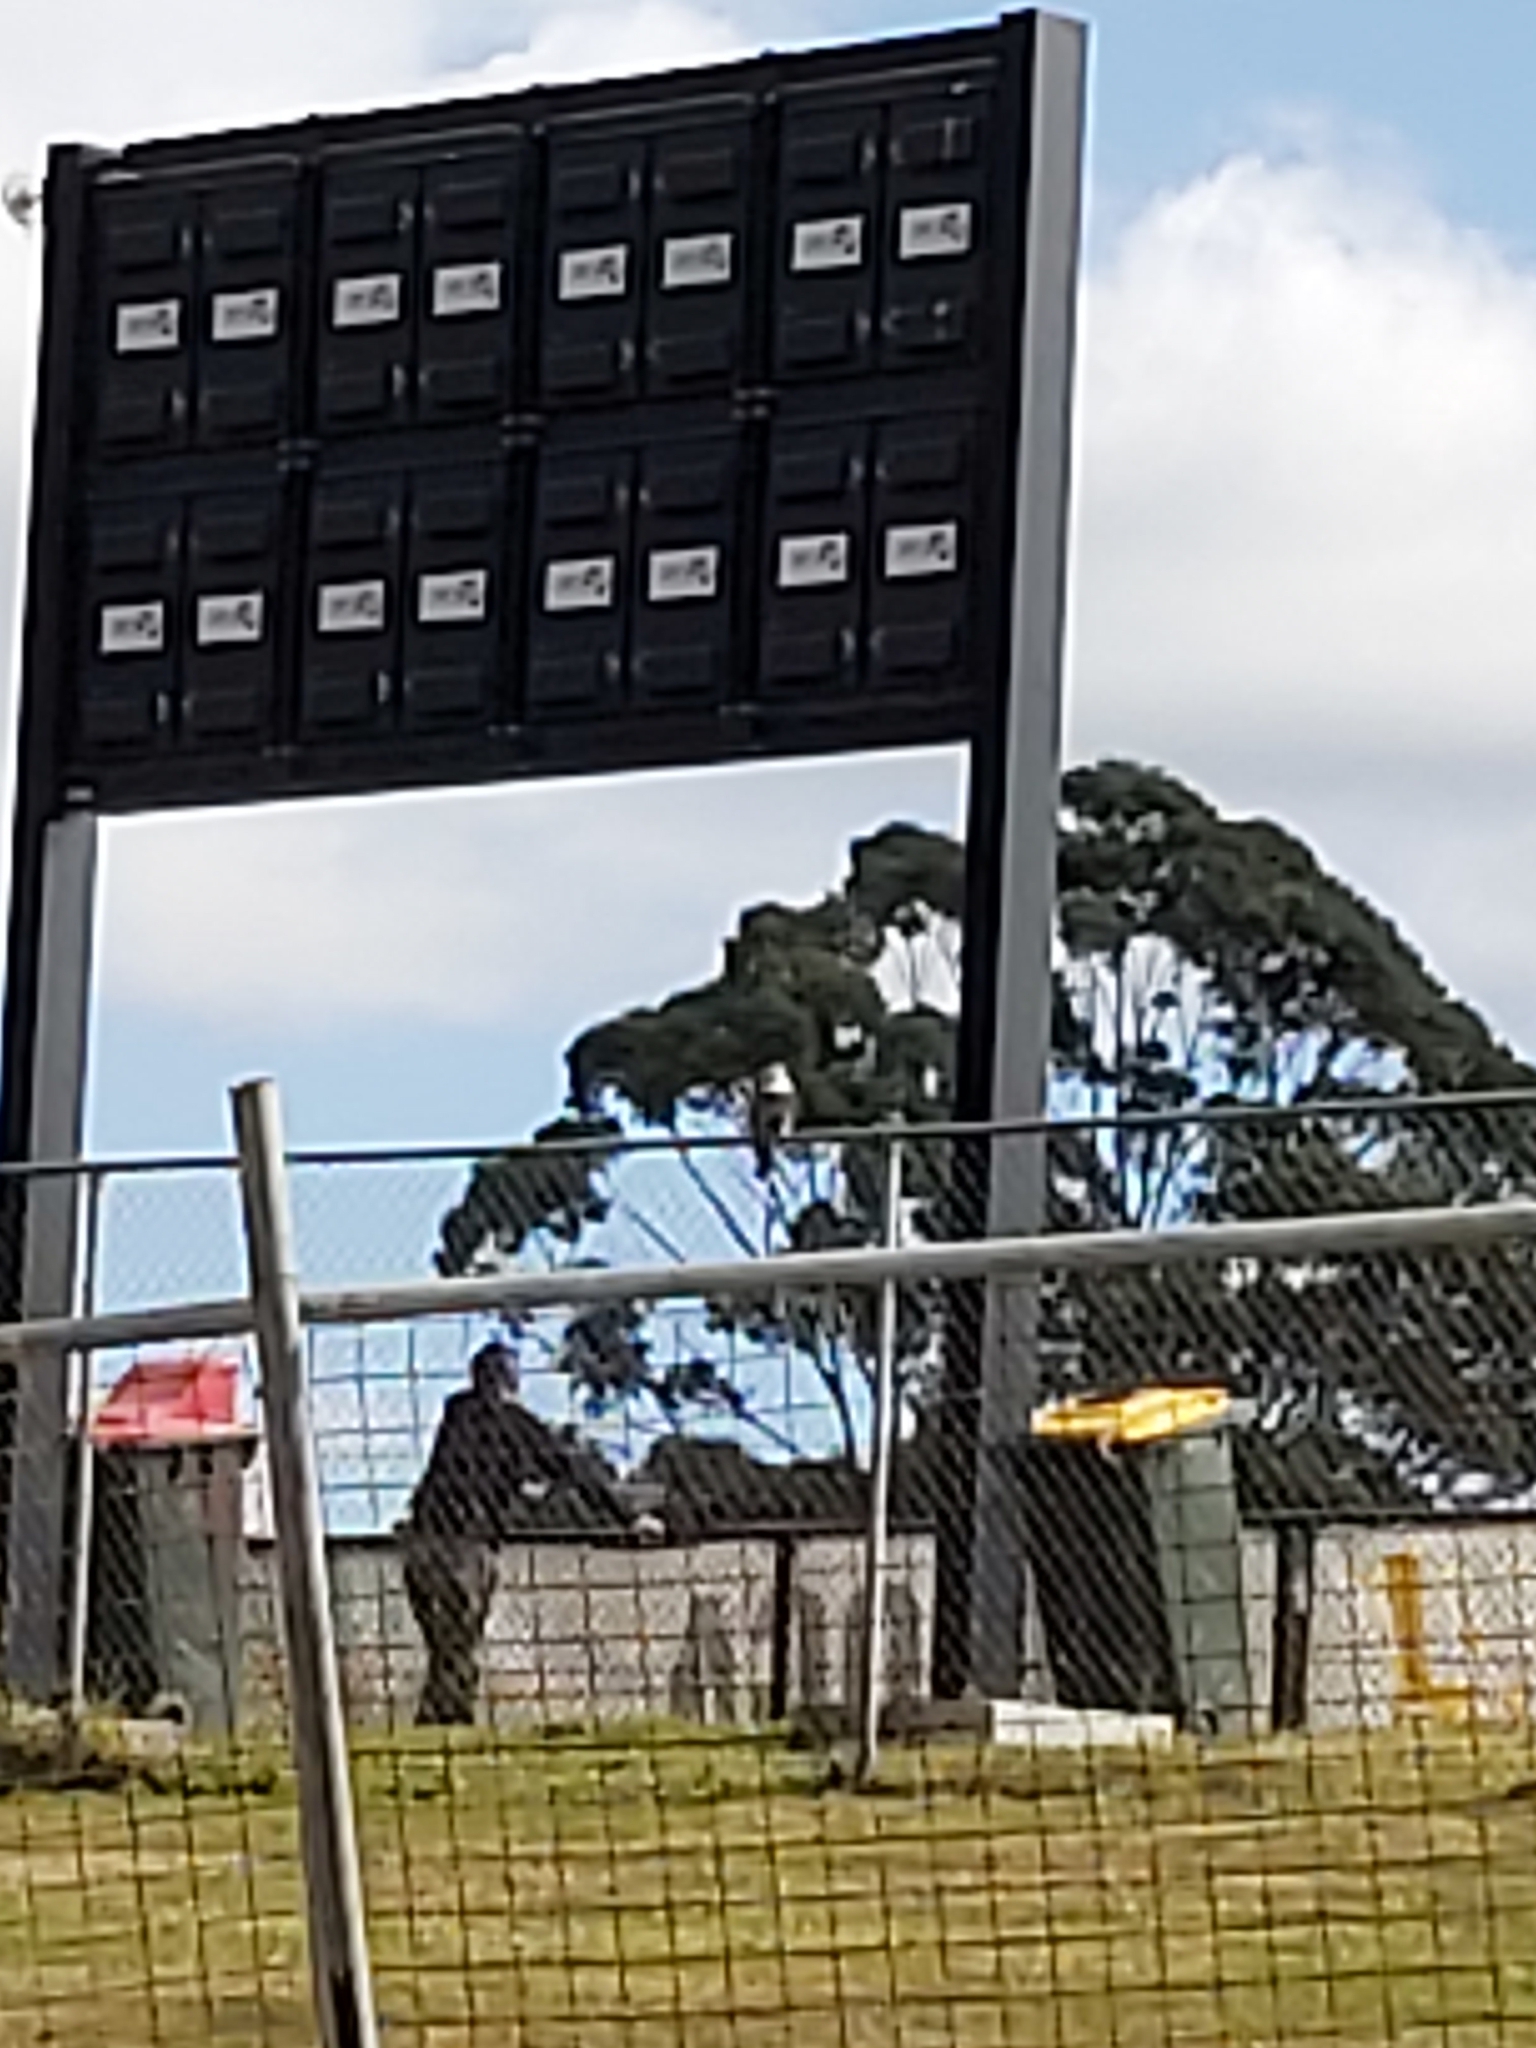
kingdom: Animalia
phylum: Chordata
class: Aves
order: Coraciiformes
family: Alcedinidae
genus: Dacelo
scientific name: Dacelo novaeguineae
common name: Laughing kookaburra
